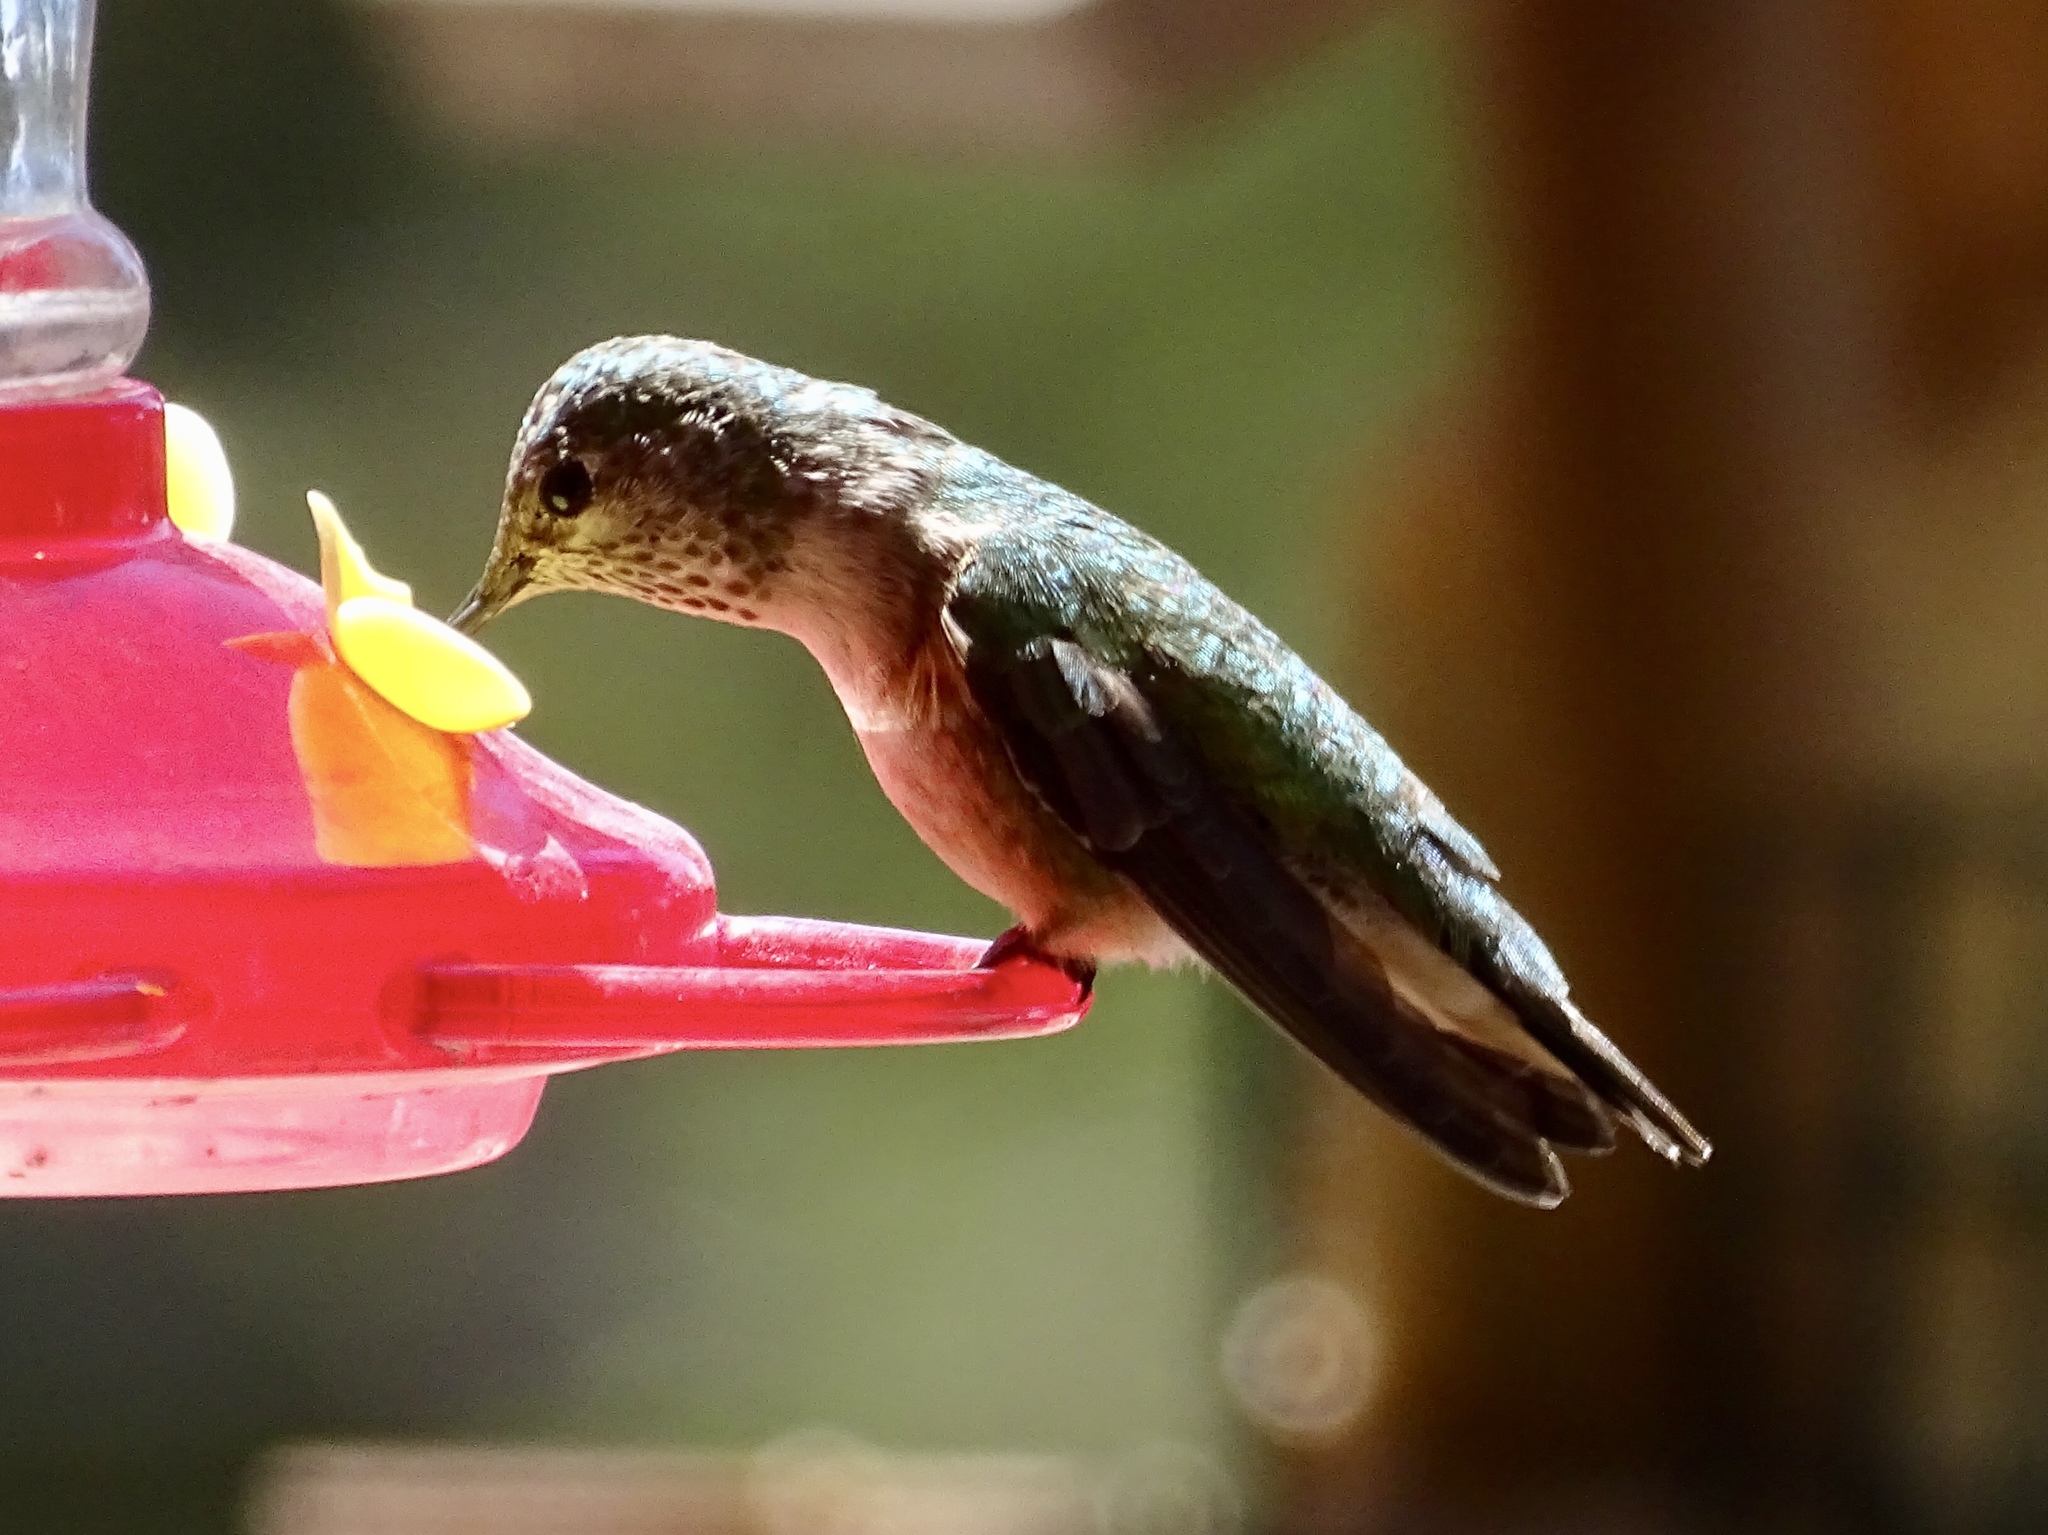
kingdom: Animalia
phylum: Chordata
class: Aves
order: Apodiformes
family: Trochilidae
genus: Selasphorus
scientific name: Selasphorus platycercus
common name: Broad-tailed hummingbird
